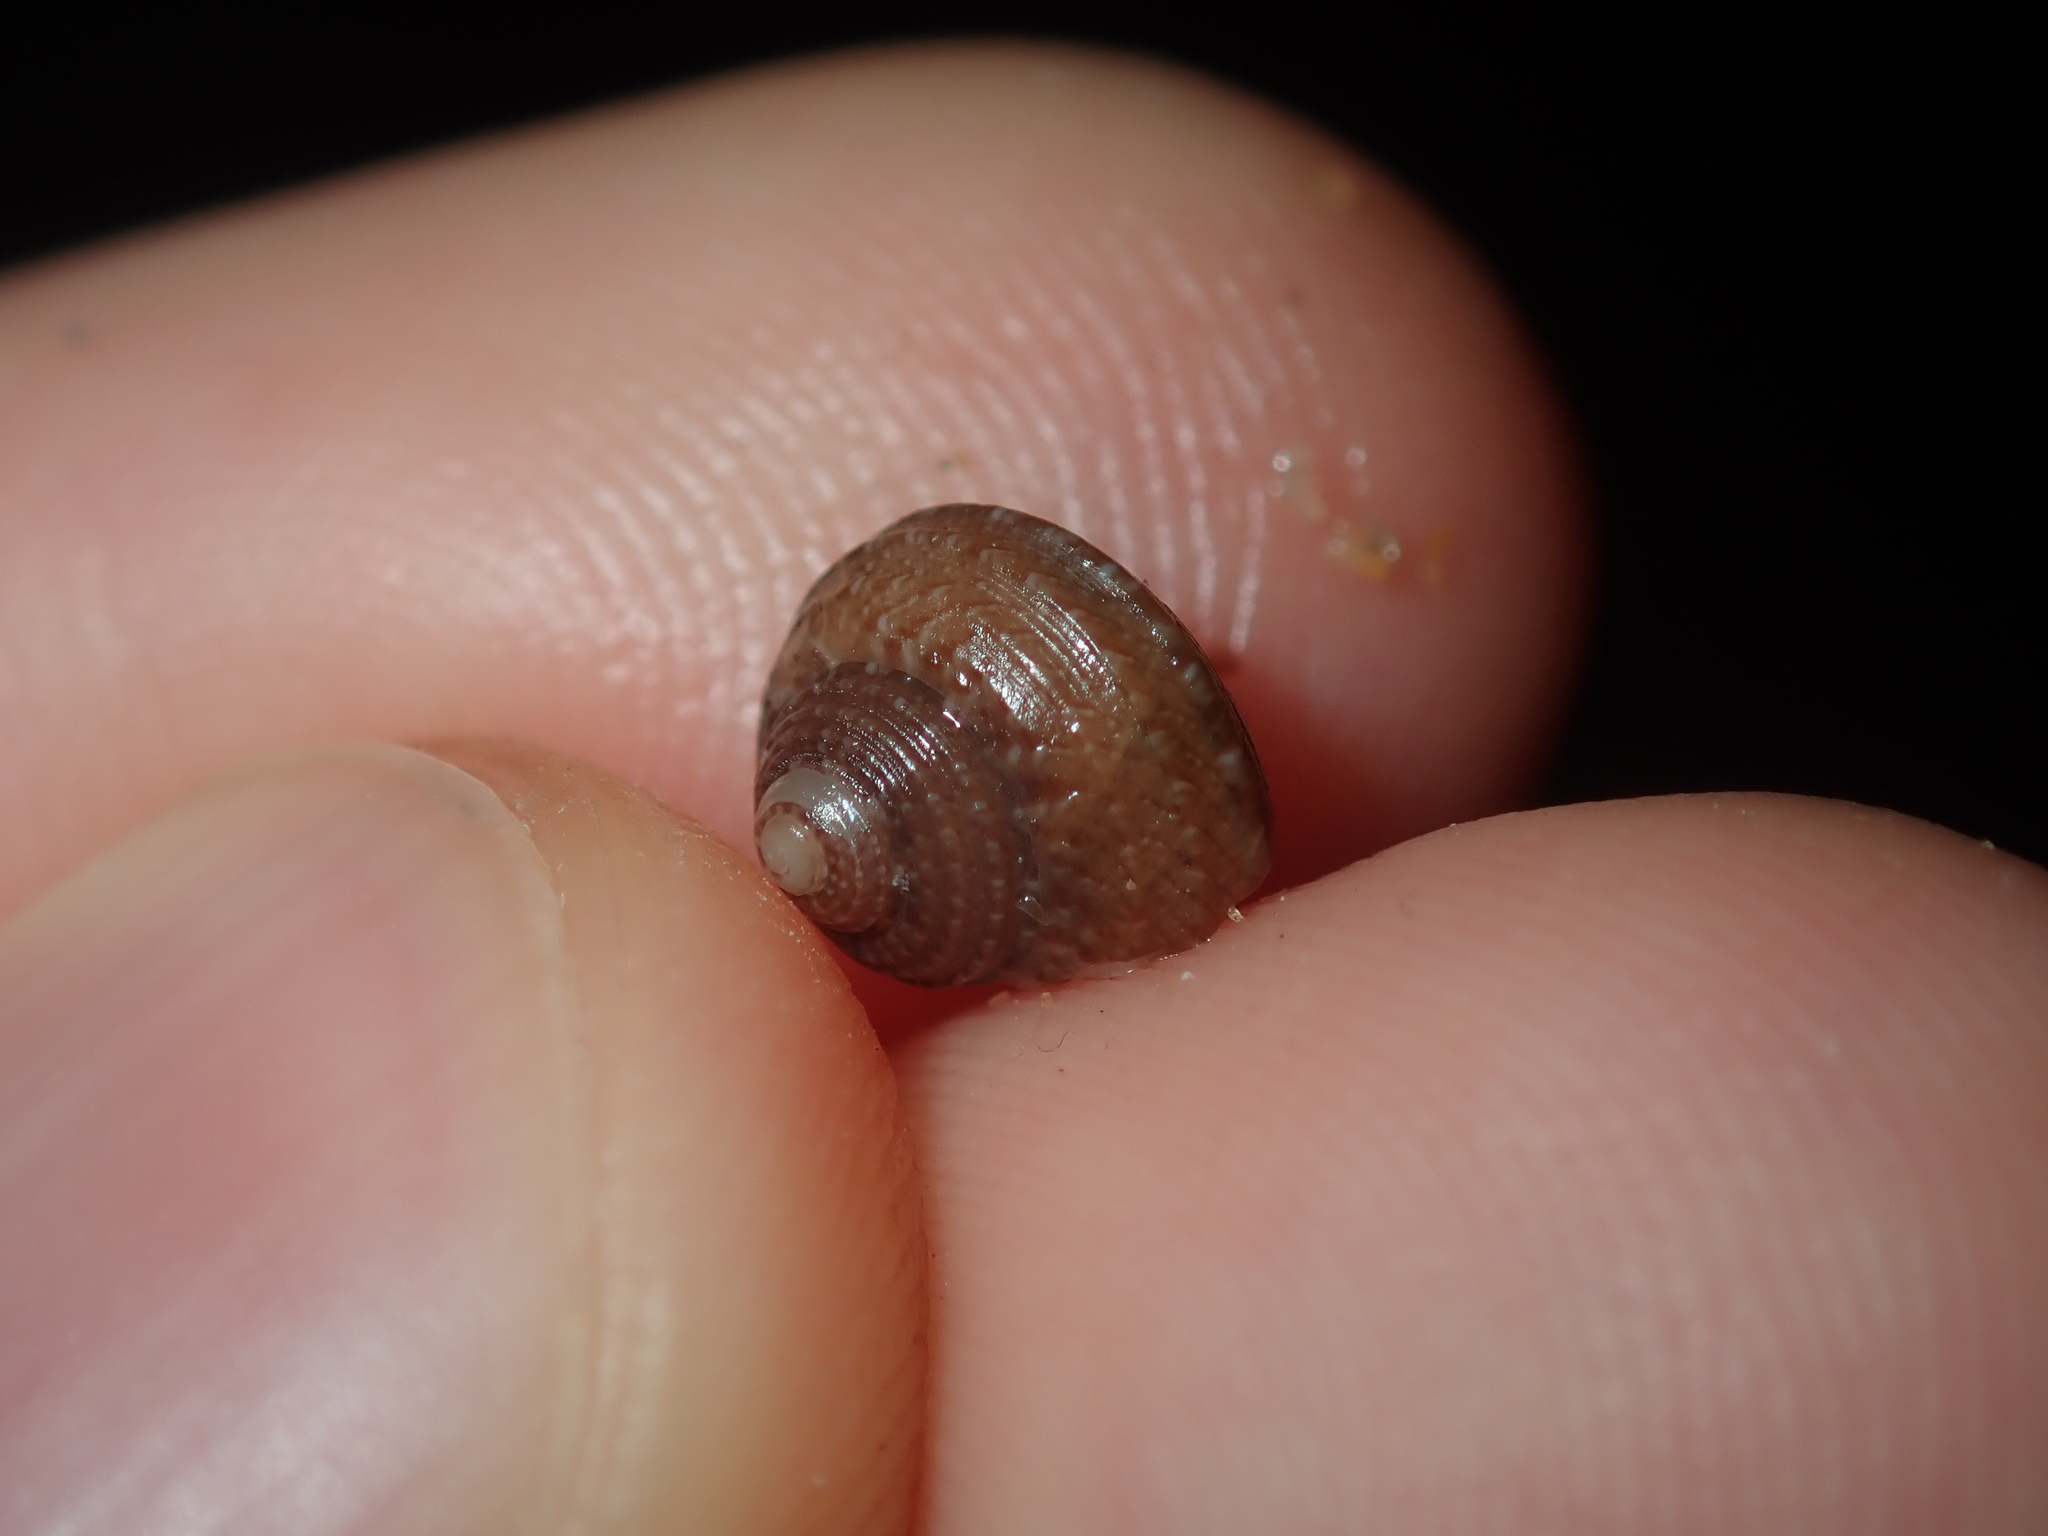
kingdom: Animalia
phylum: Mollusca
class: Gastropoda
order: Trochida
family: Trochidae
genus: Eurytrochus
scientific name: Eurytrochus strangei
